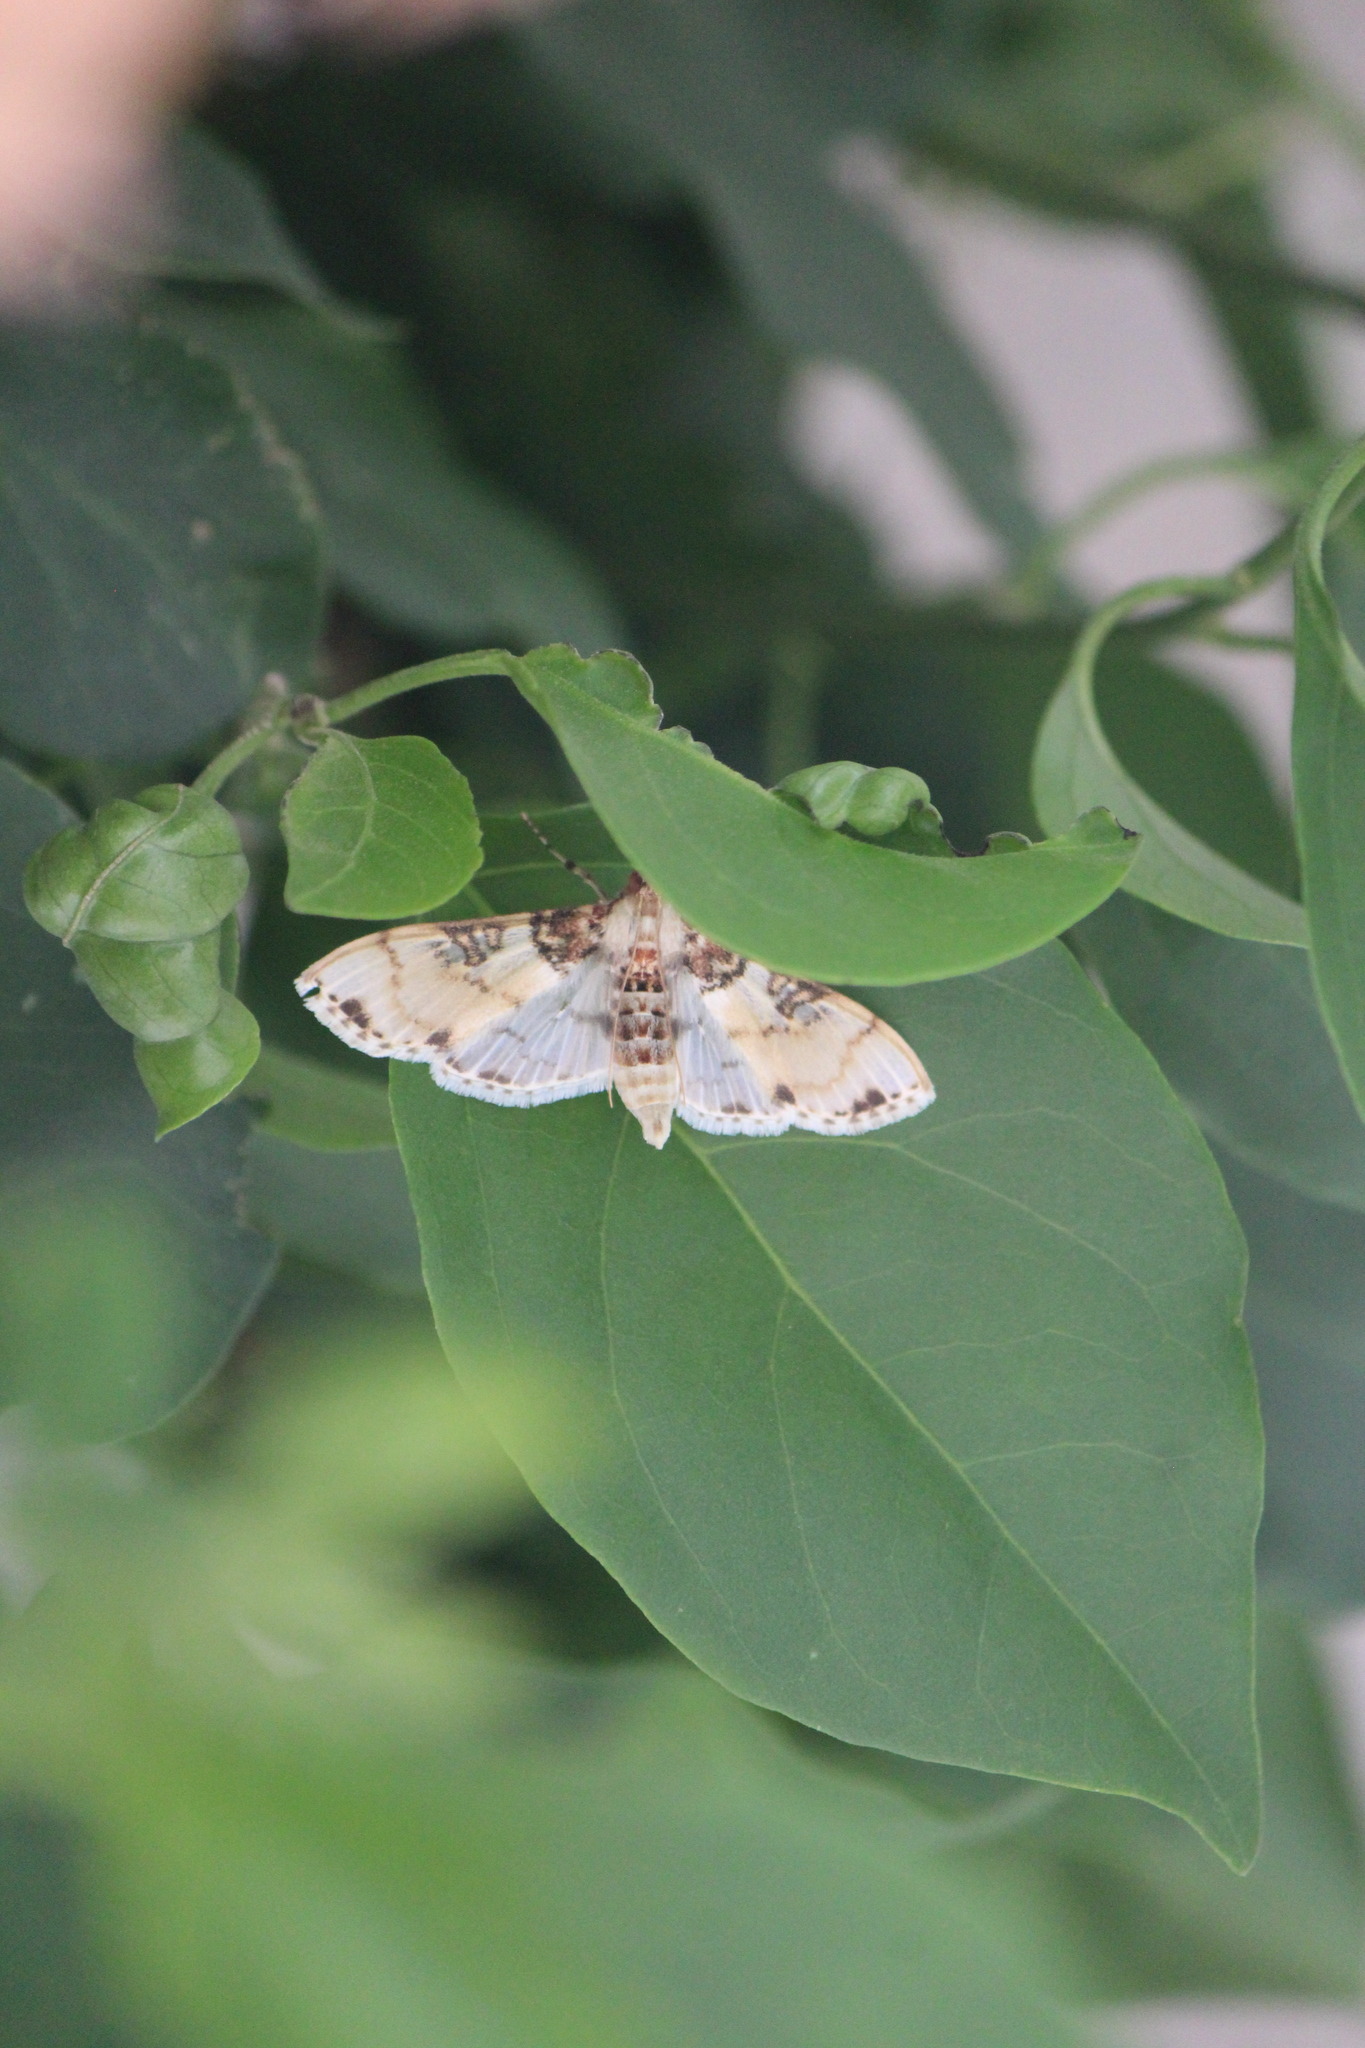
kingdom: Animalia
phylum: Arthropoda
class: Insecta
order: Lepidoptera
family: Crambidae
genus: Azochis
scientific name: Azochis rufidiscalis
